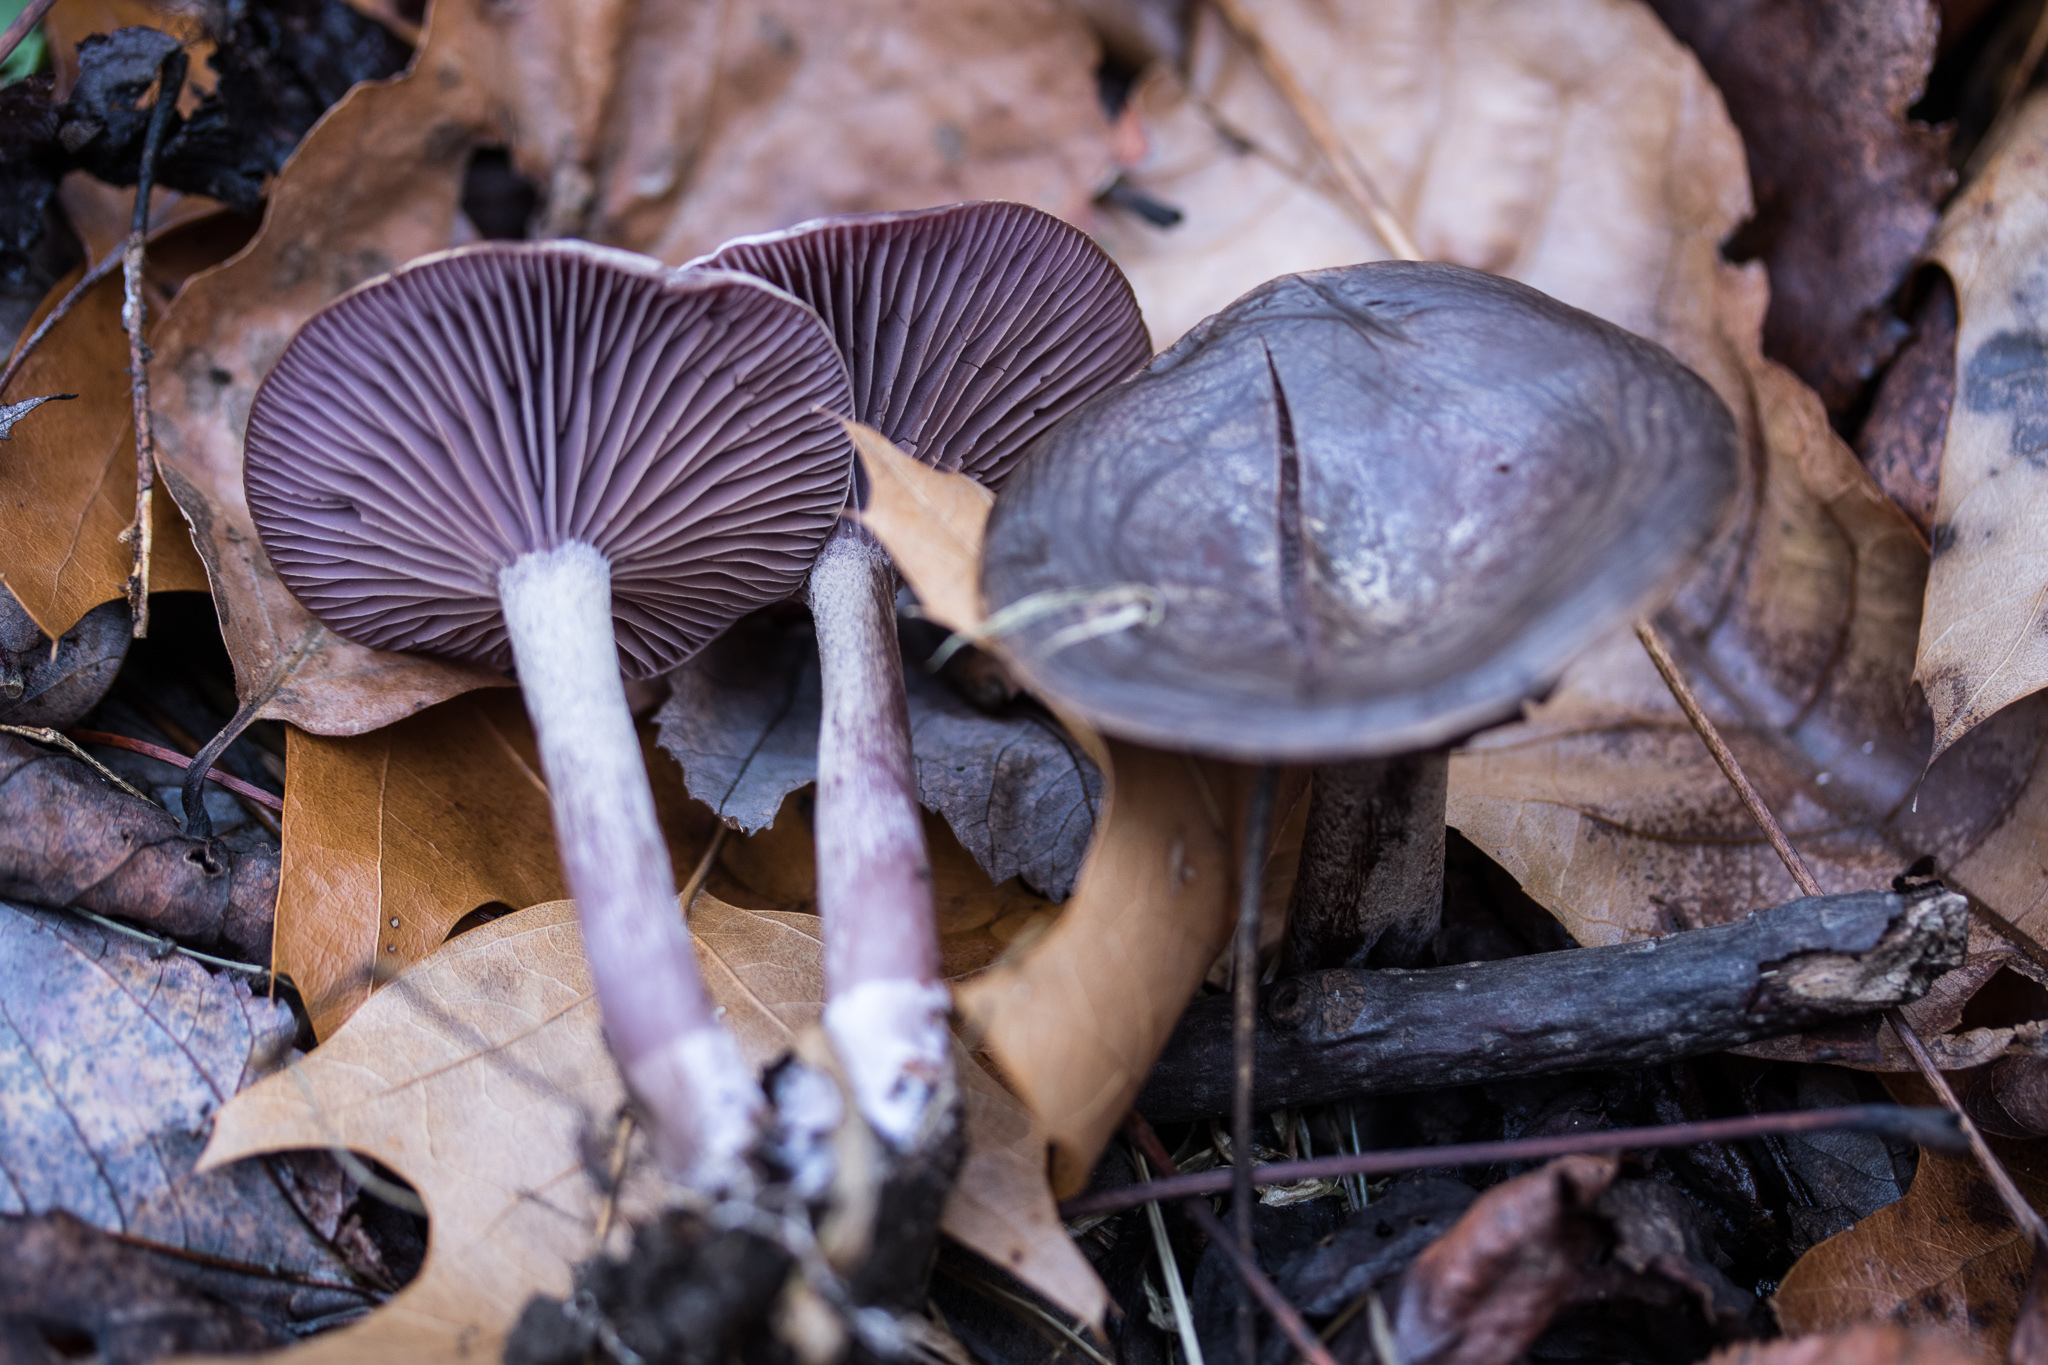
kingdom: Fungi
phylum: Basidiomycota
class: Agaricomycetes
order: Agaricales
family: Tricholomataceae
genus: Pseudoomphalina
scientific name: Pseudoomphalina cokeri
